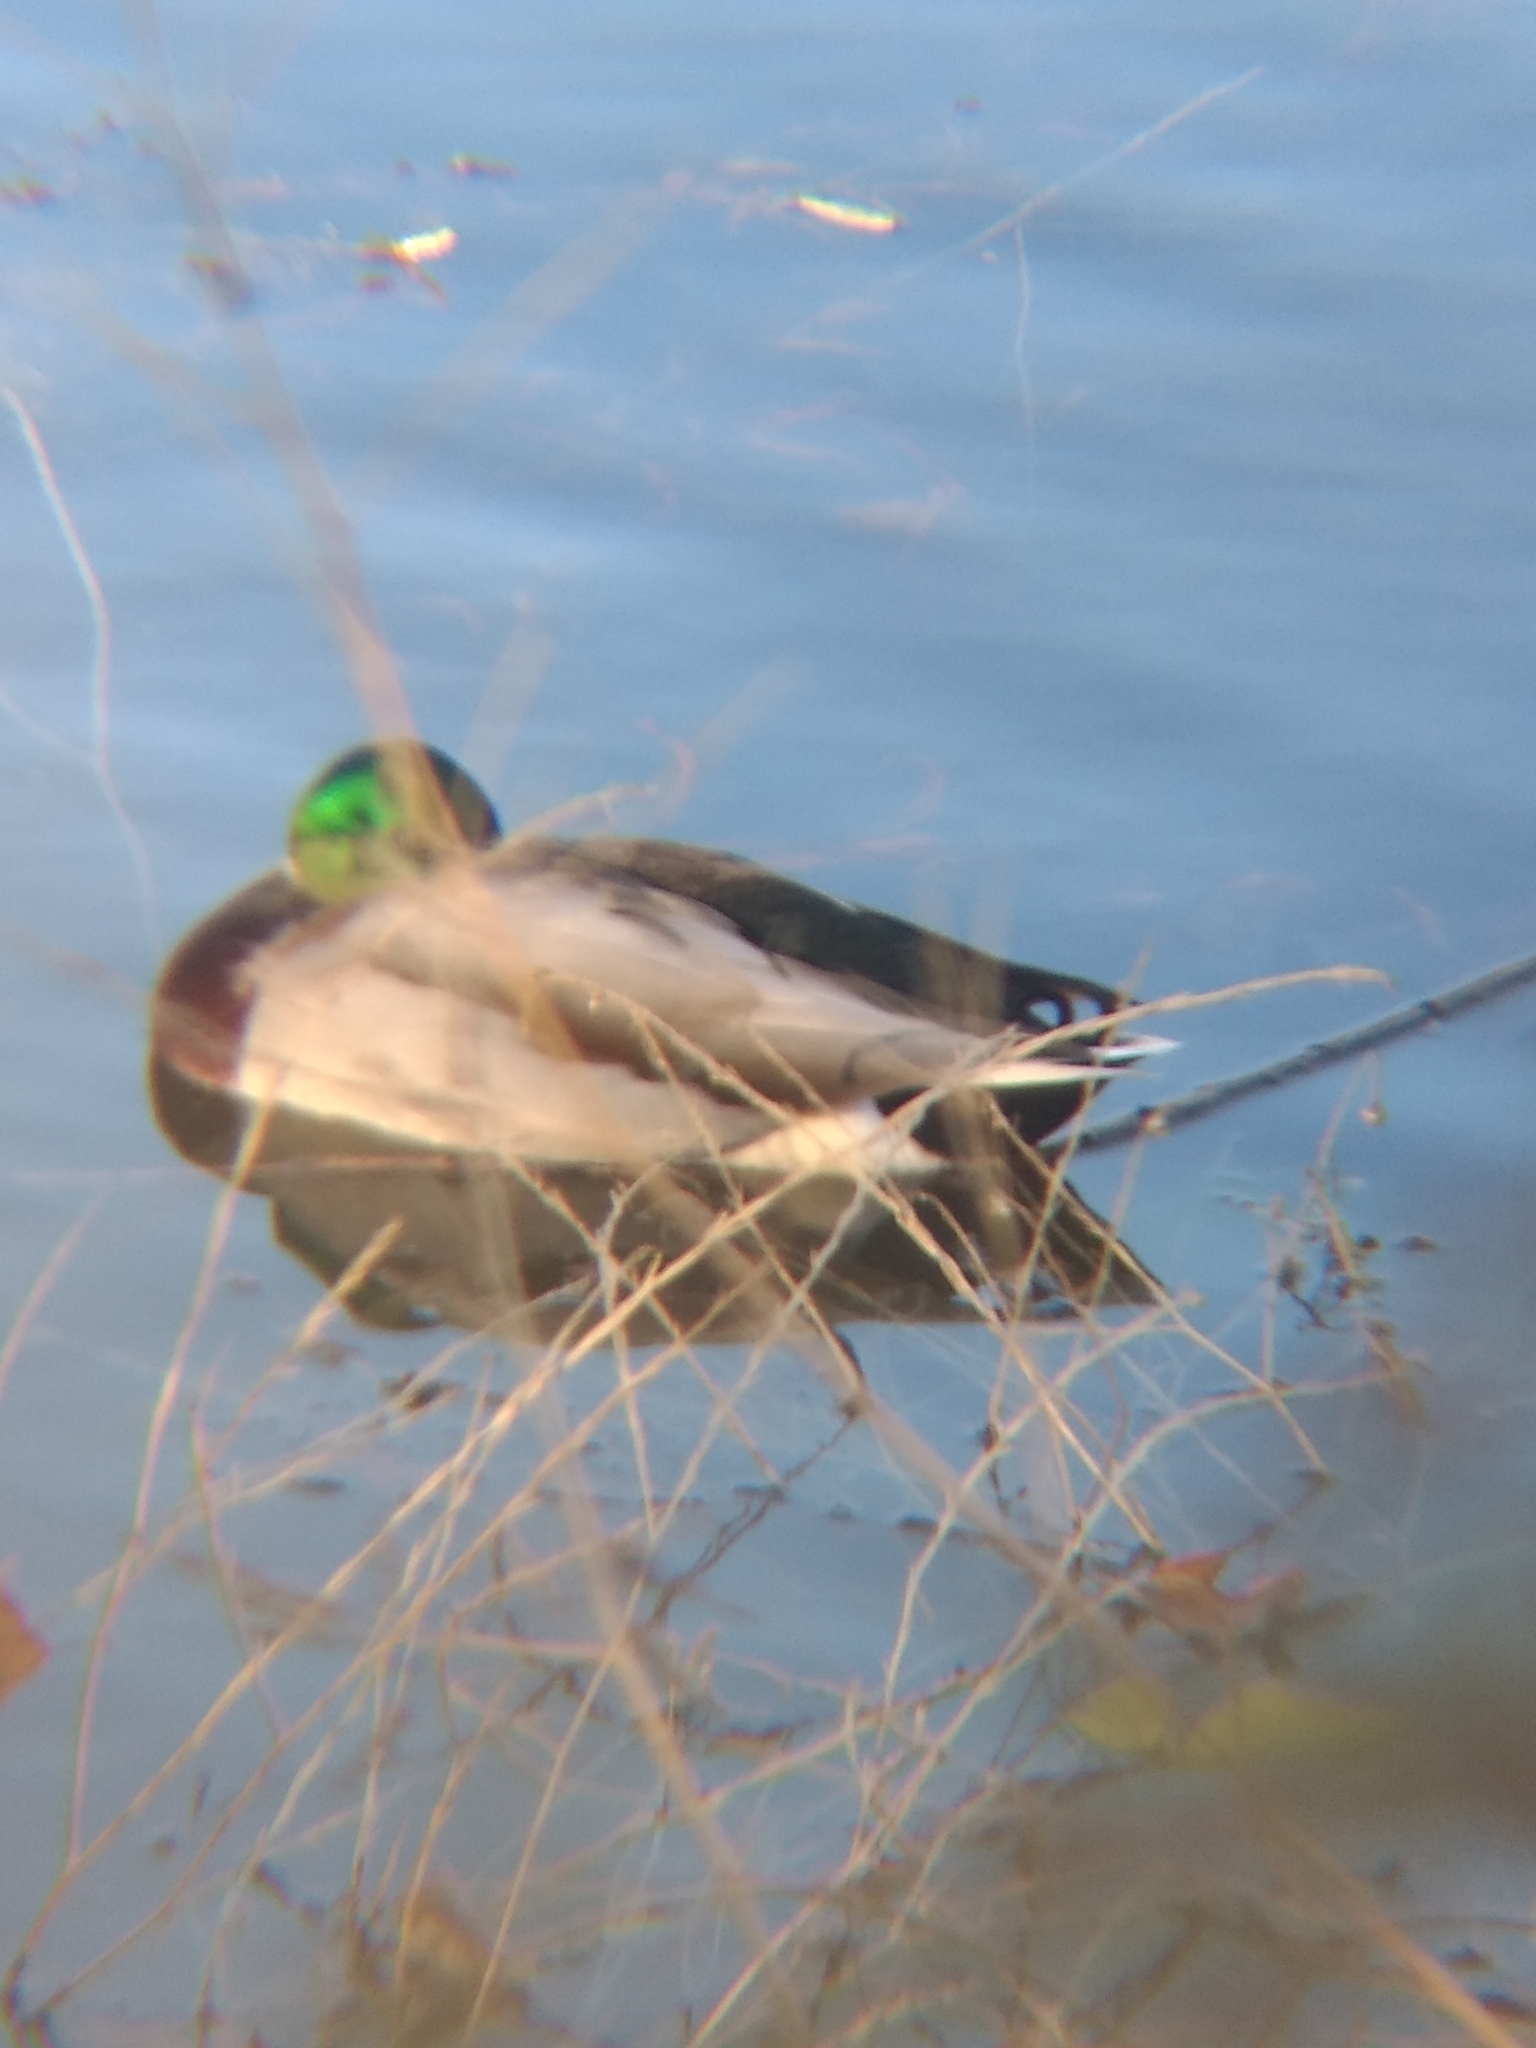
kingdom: Animalia
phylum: Chordata
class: Aves
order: Anseriformes
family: Anatidae
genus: Anas
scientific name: Anas platyrhynchos
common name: Mallard
